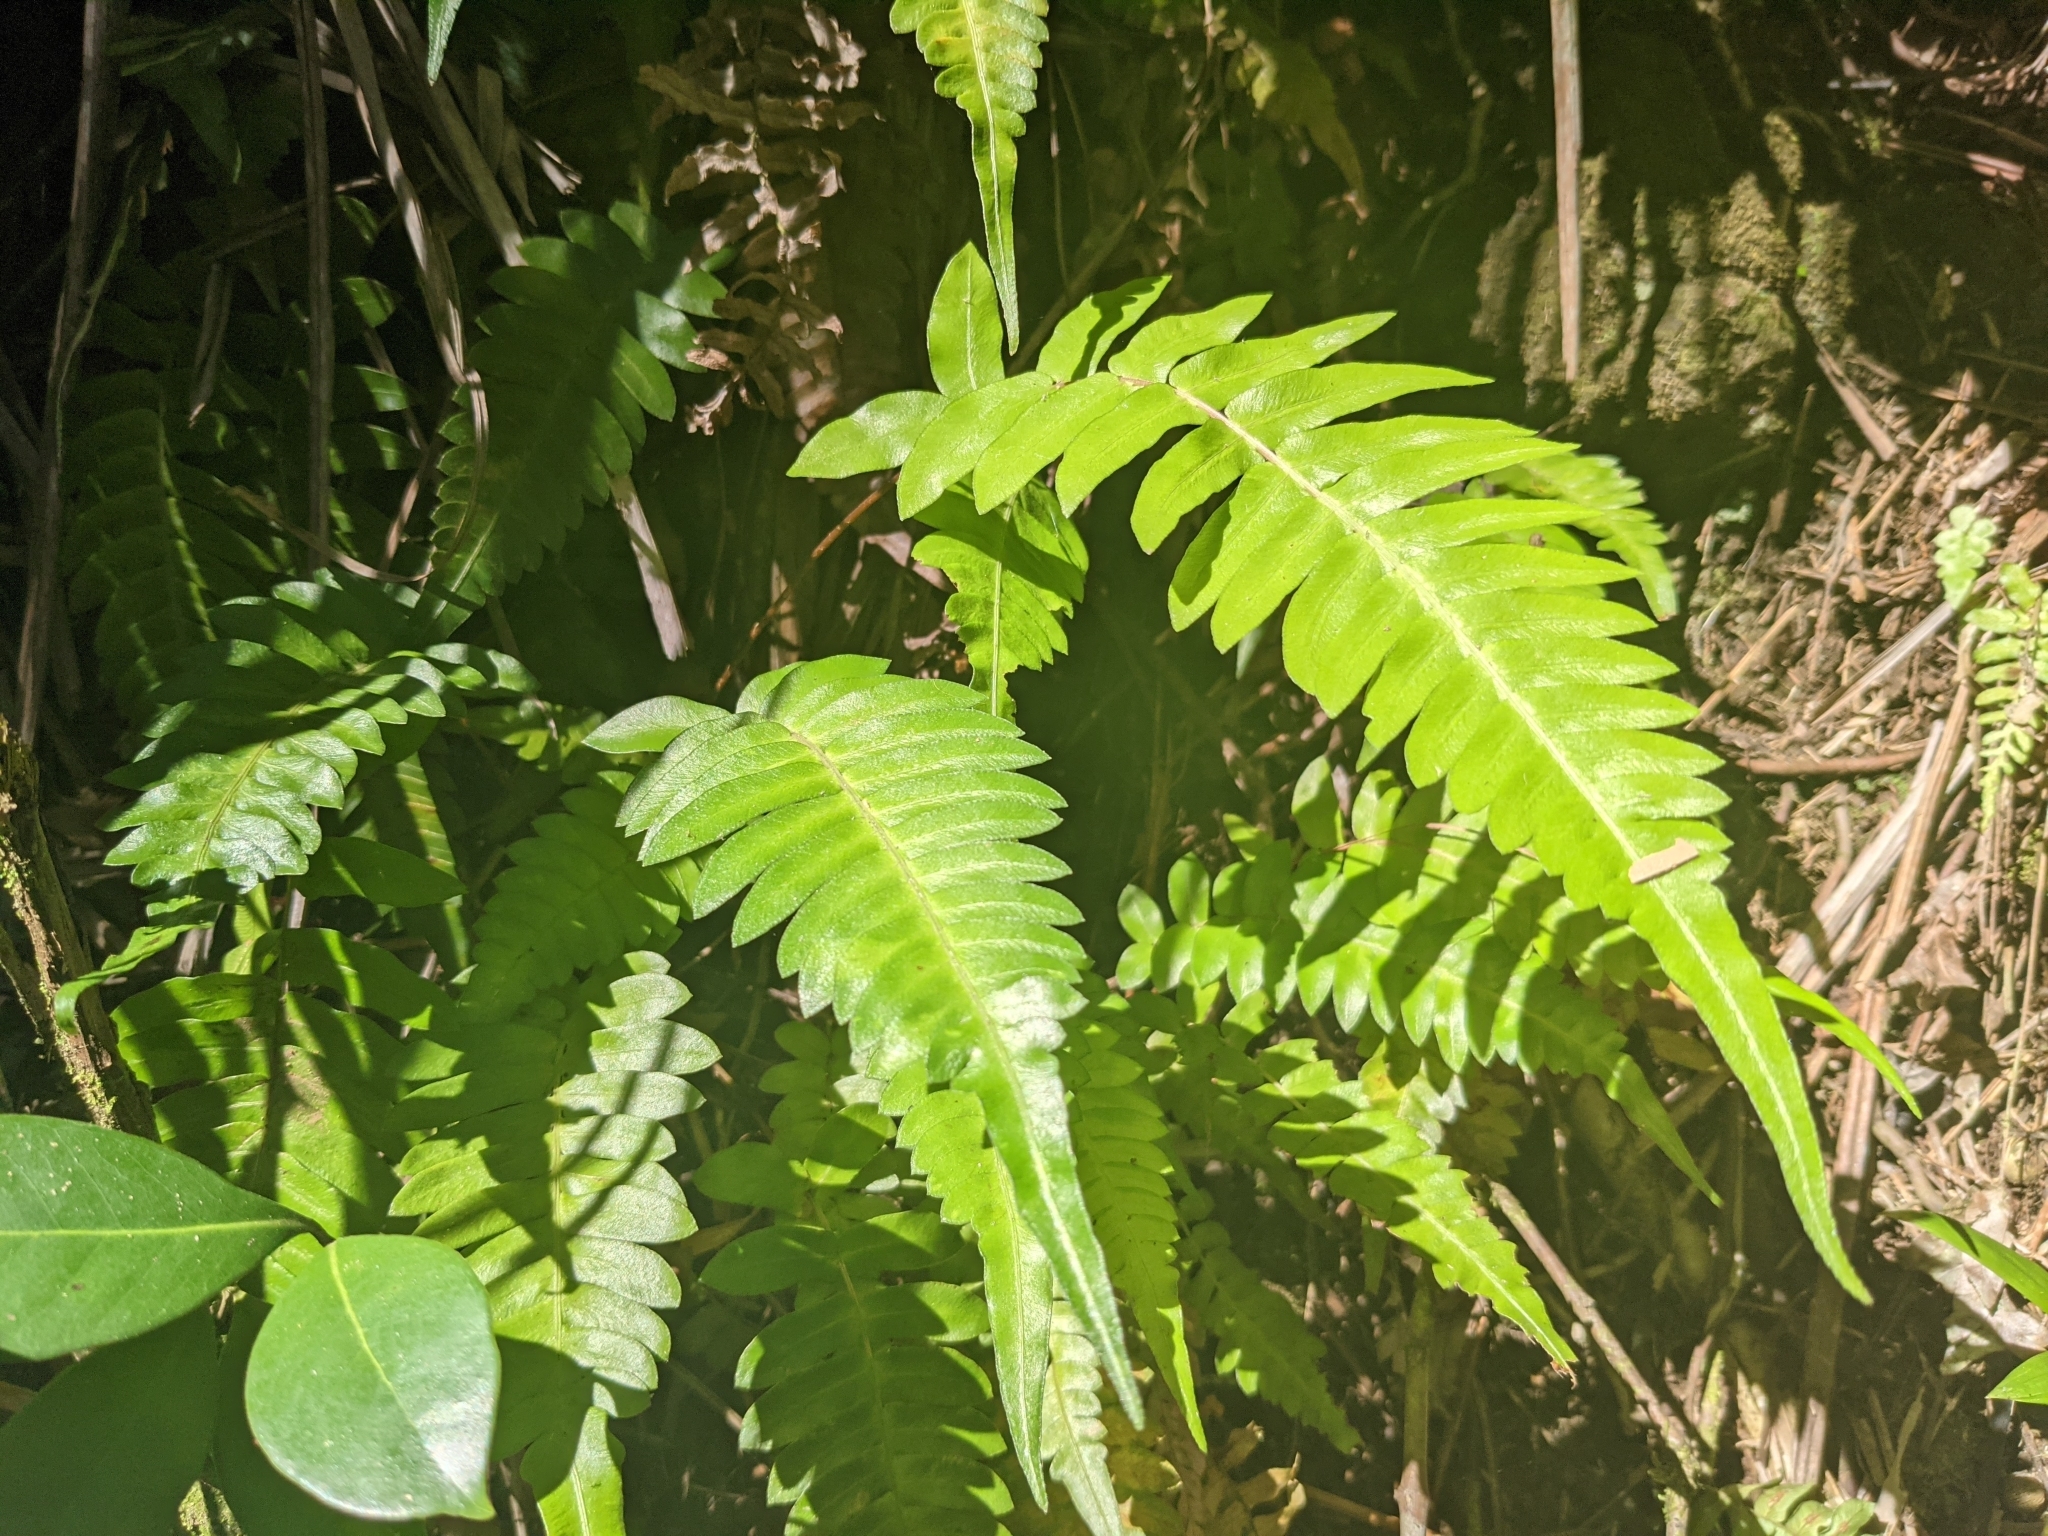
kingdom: Plantae
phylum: Tracheophyta
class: Polypodiopsida
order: Polypodiales
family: Blechnaceae
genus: Blechnum
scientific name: Blechnum appendiculatum
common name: Palm fern
